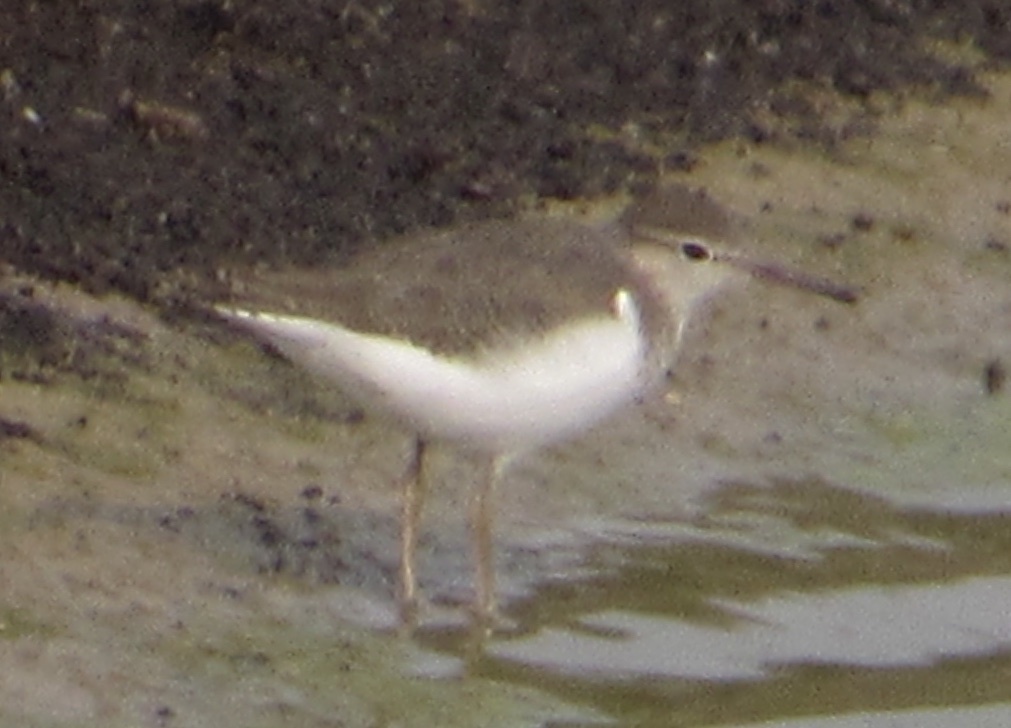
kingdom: Animalia
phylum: Chordata
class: Aves
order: Charadriiformes
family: Scolopacidae
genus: Actitis
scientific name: Actitis macularius
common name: Spotted sandpiper
